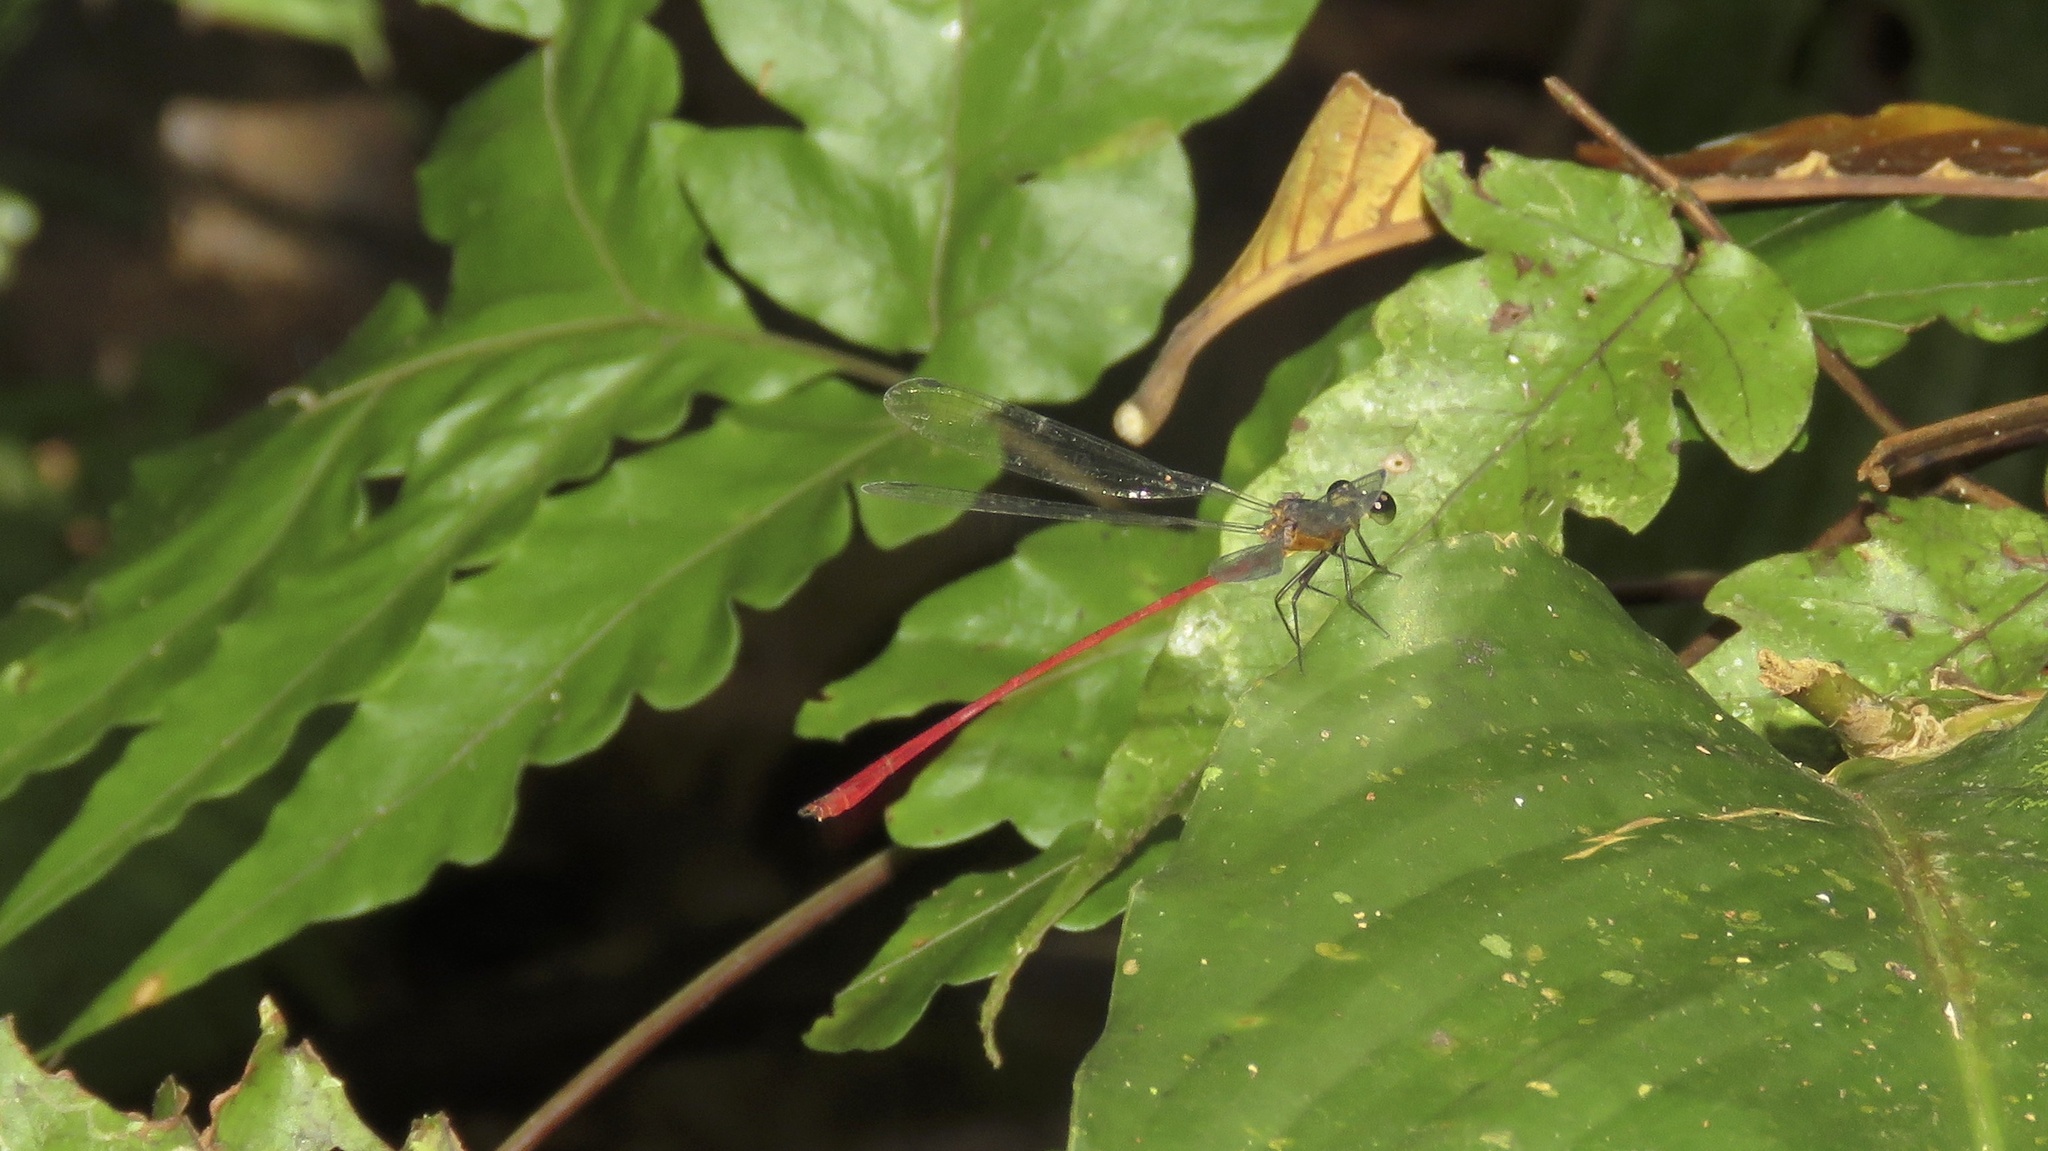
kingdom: Animalia
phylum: Arthropoda
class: Insecta
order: Odonata
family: Heteragrionidae
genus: Heteragrion
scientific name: Heteragrion erythrogastrum
